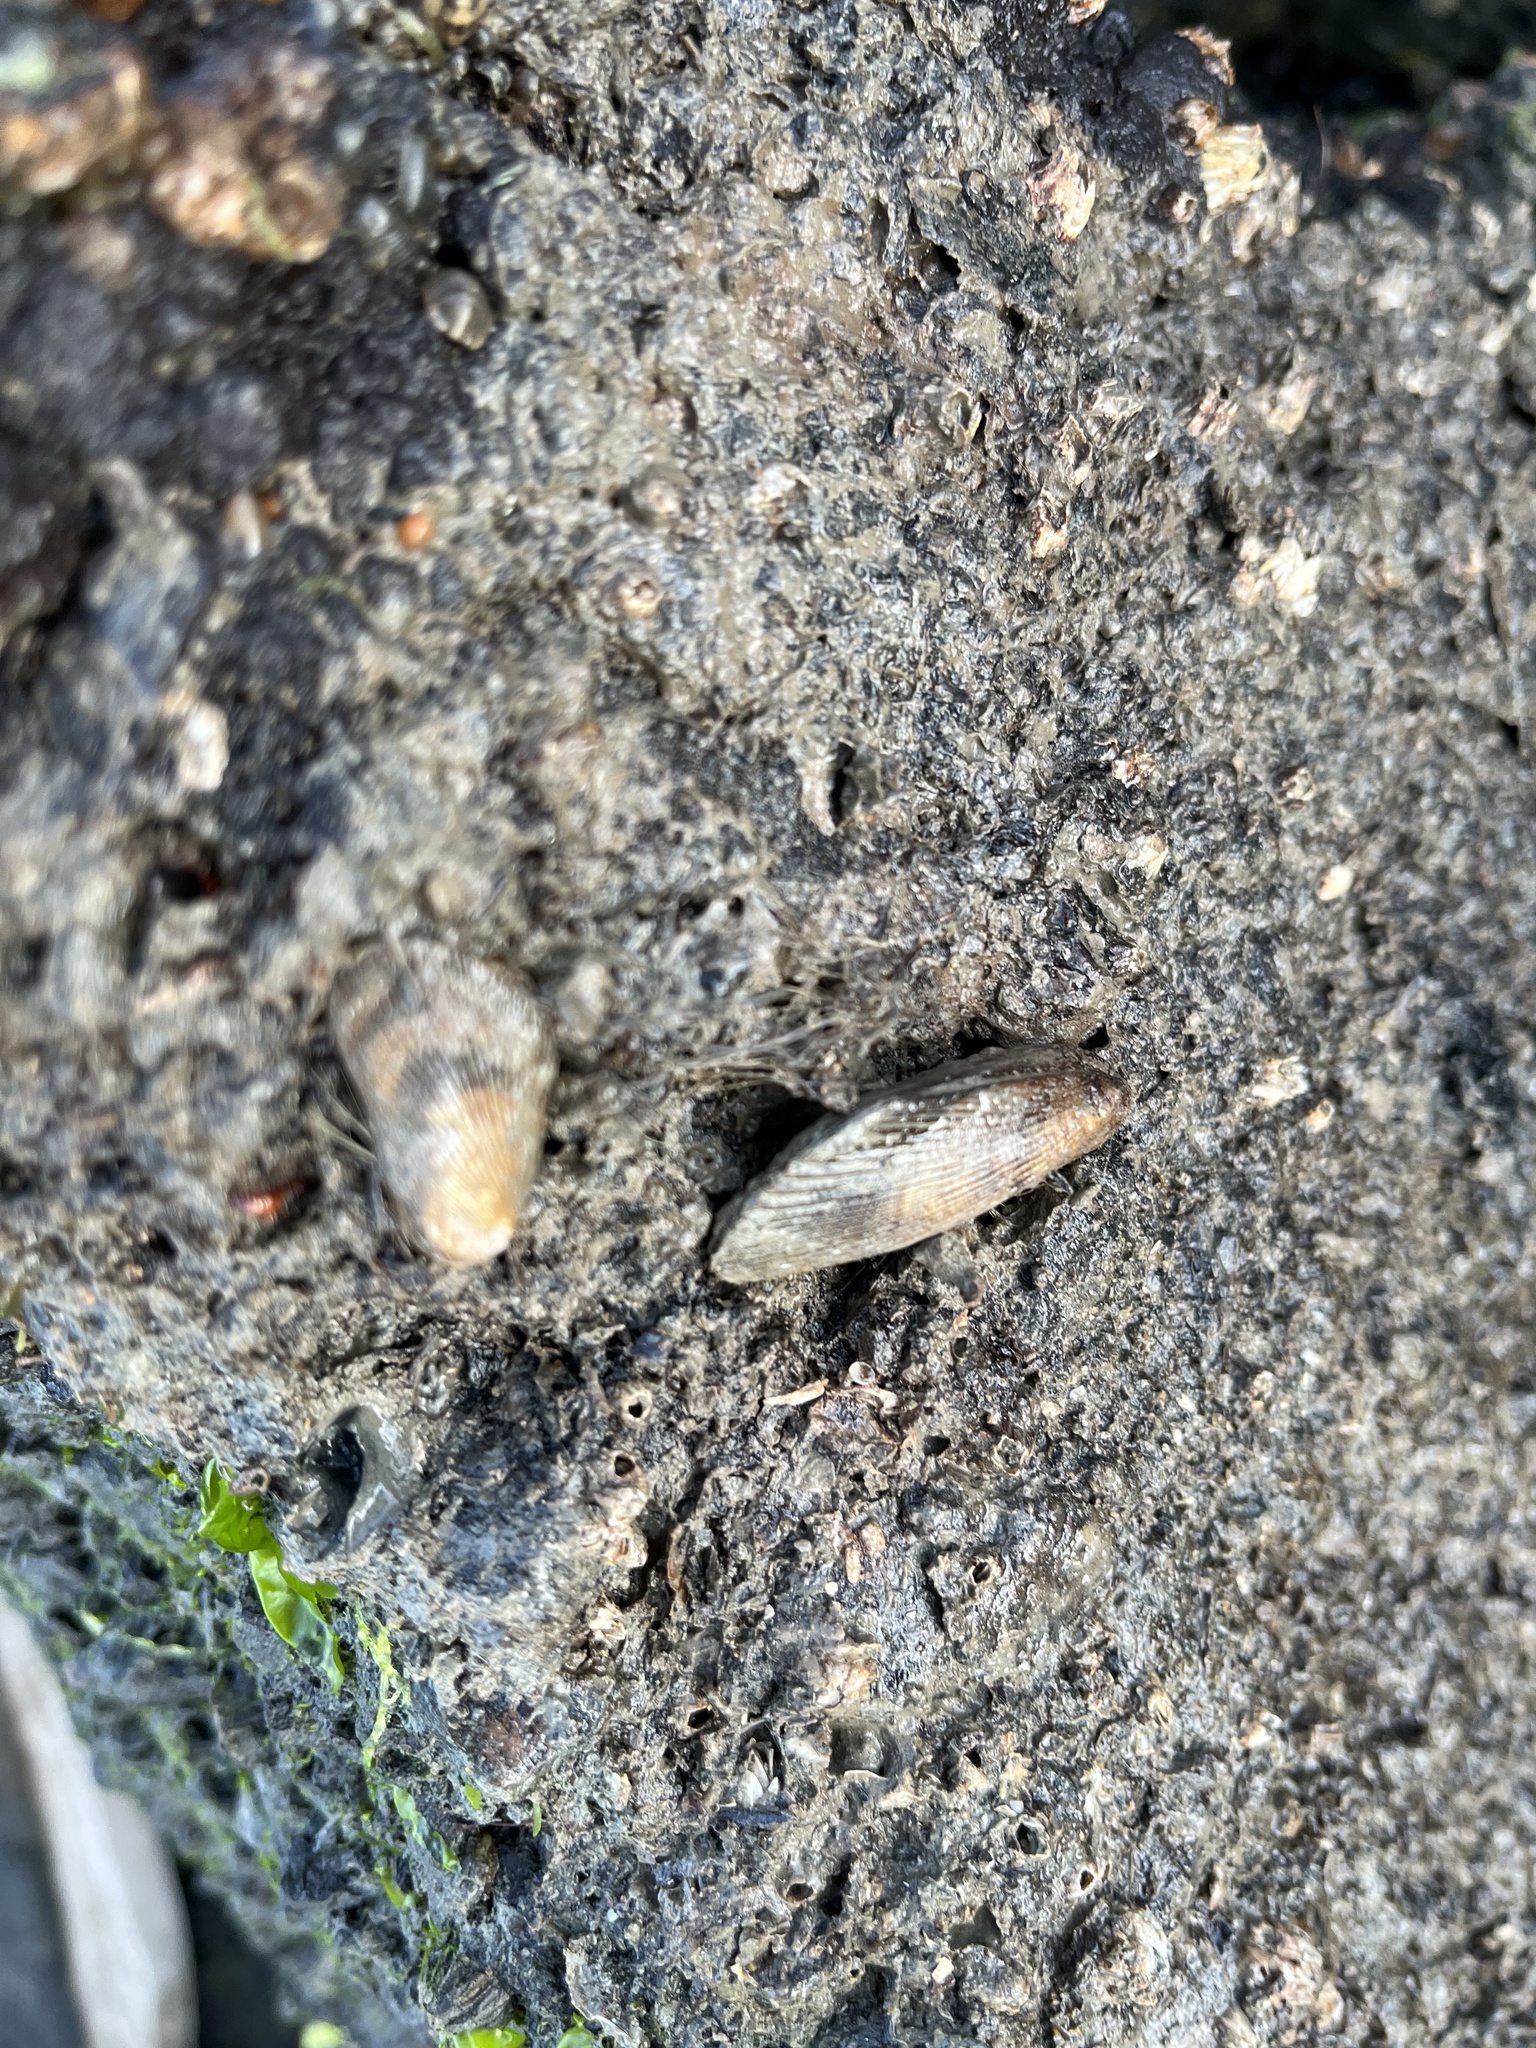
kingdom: Animalia
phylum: Mollusca
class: Bivalvia
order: Mytilida
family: Mytilidae
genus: Geukensia
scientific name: Geukensia demissa
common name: Ribbed mussel
